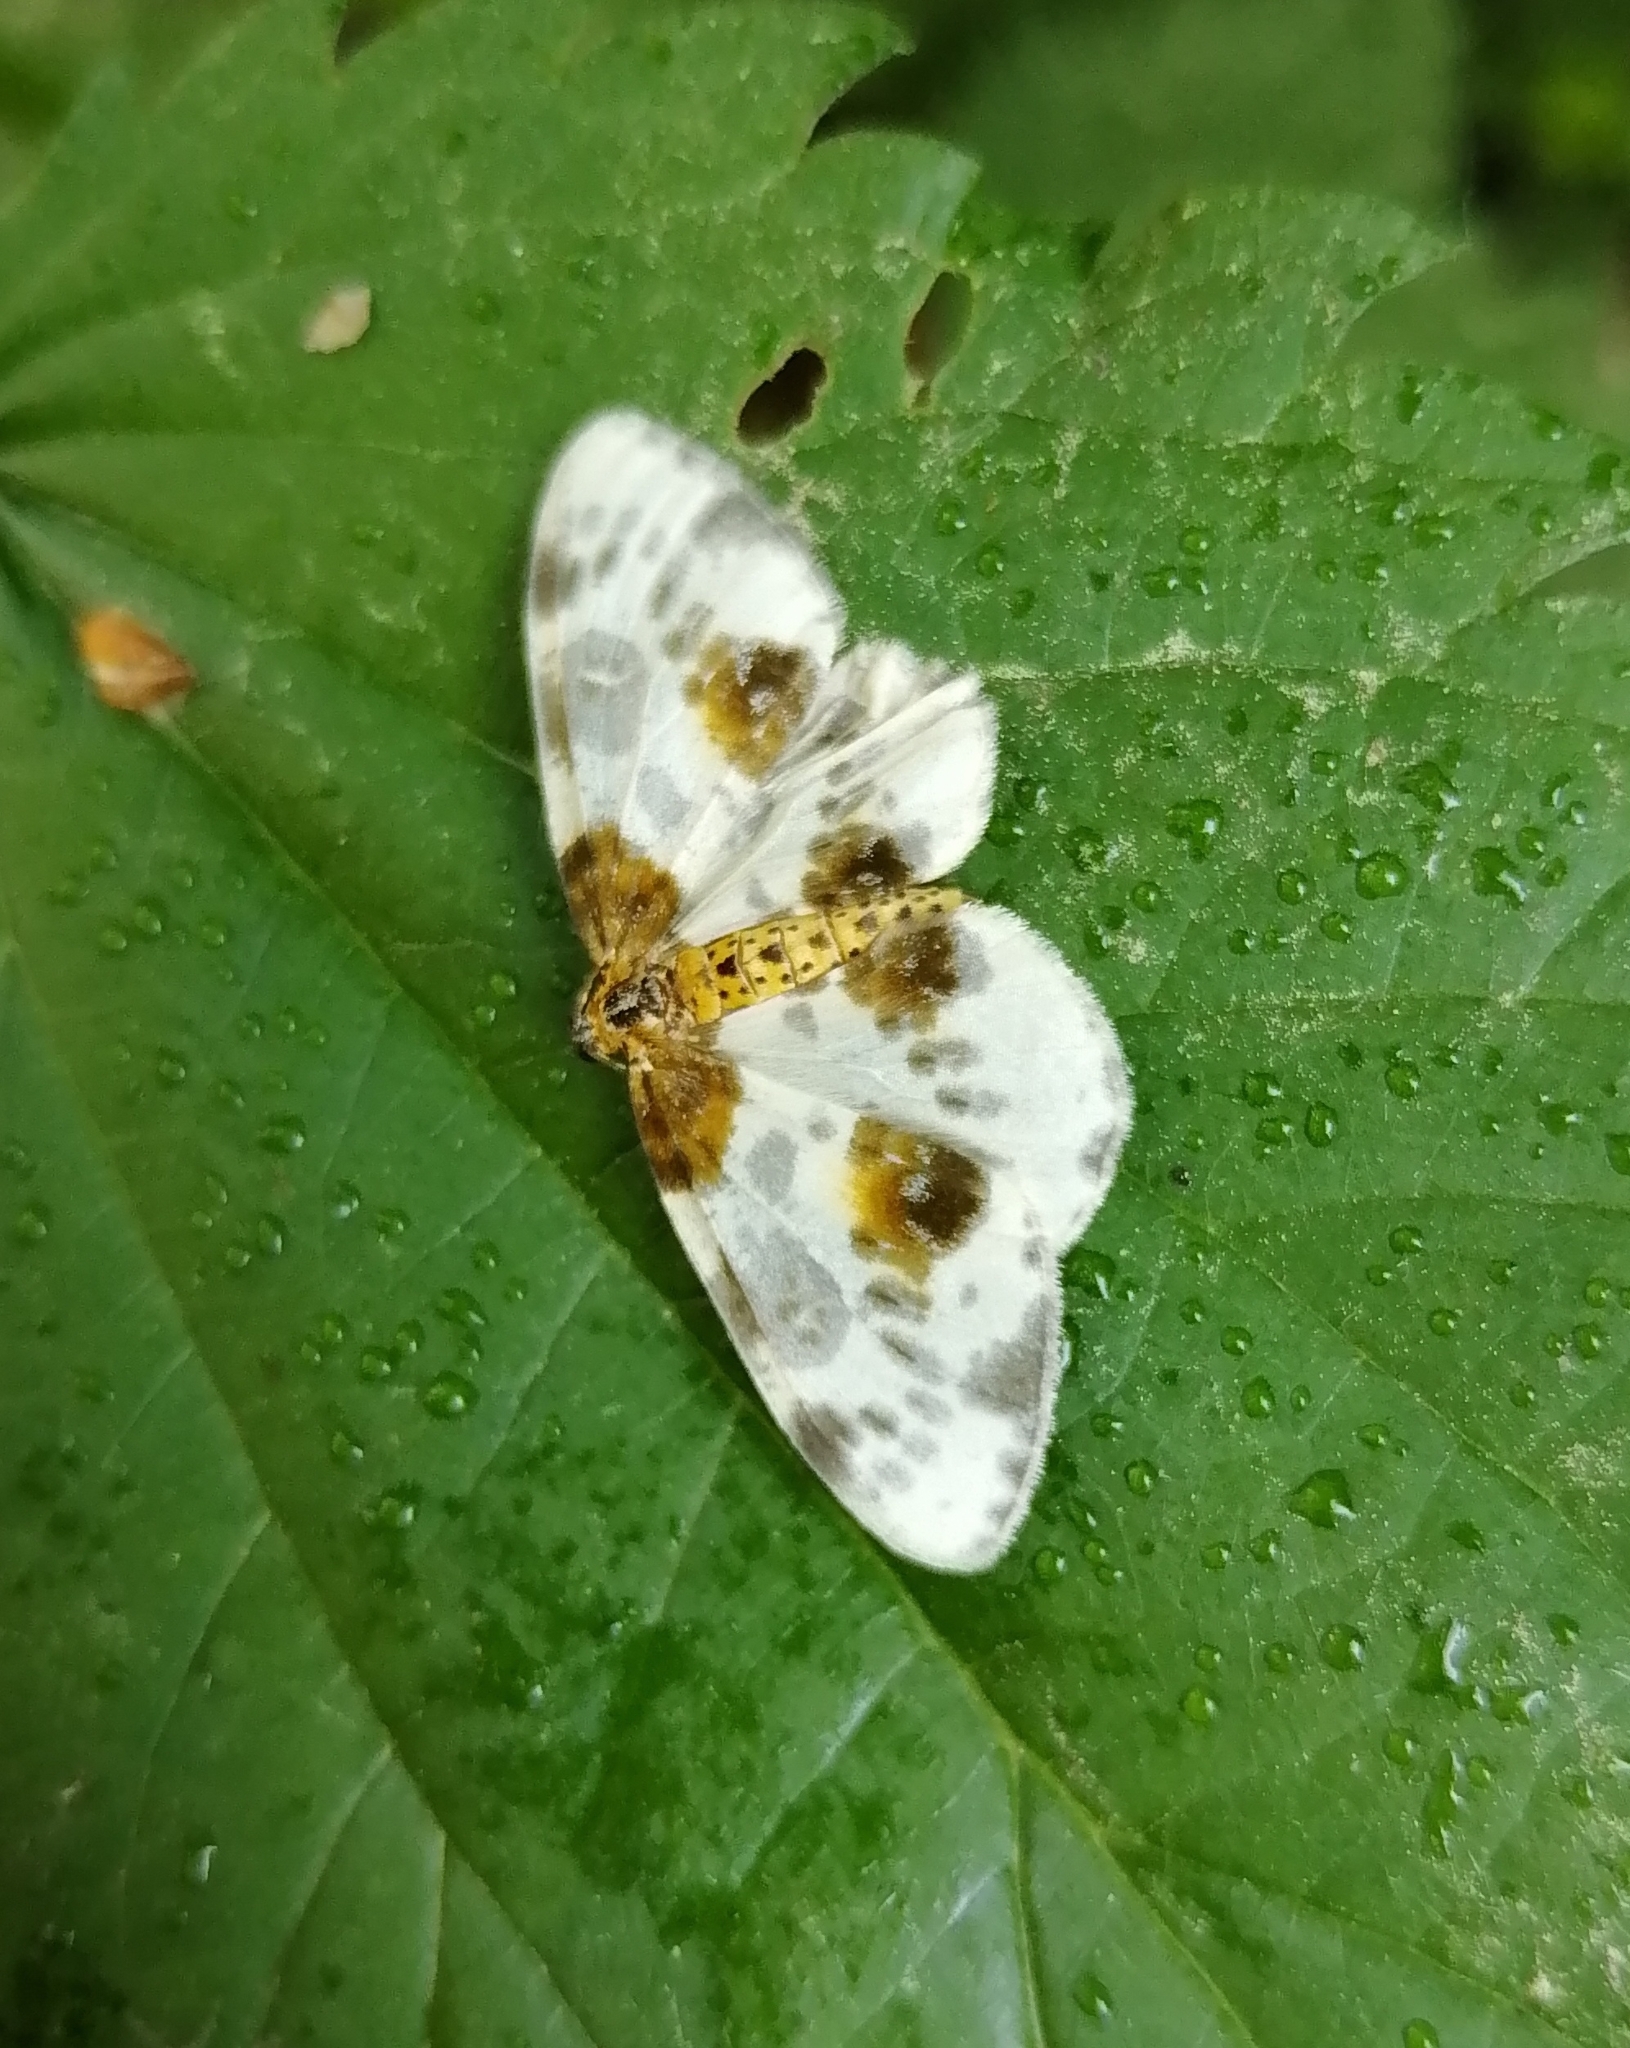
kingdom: Animalia
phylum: Arthropoda
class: Insecta
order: Lepidoptera
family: Geometridae
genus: Abraxas
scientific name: Abraxas sylvata
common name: Clouded magpie
